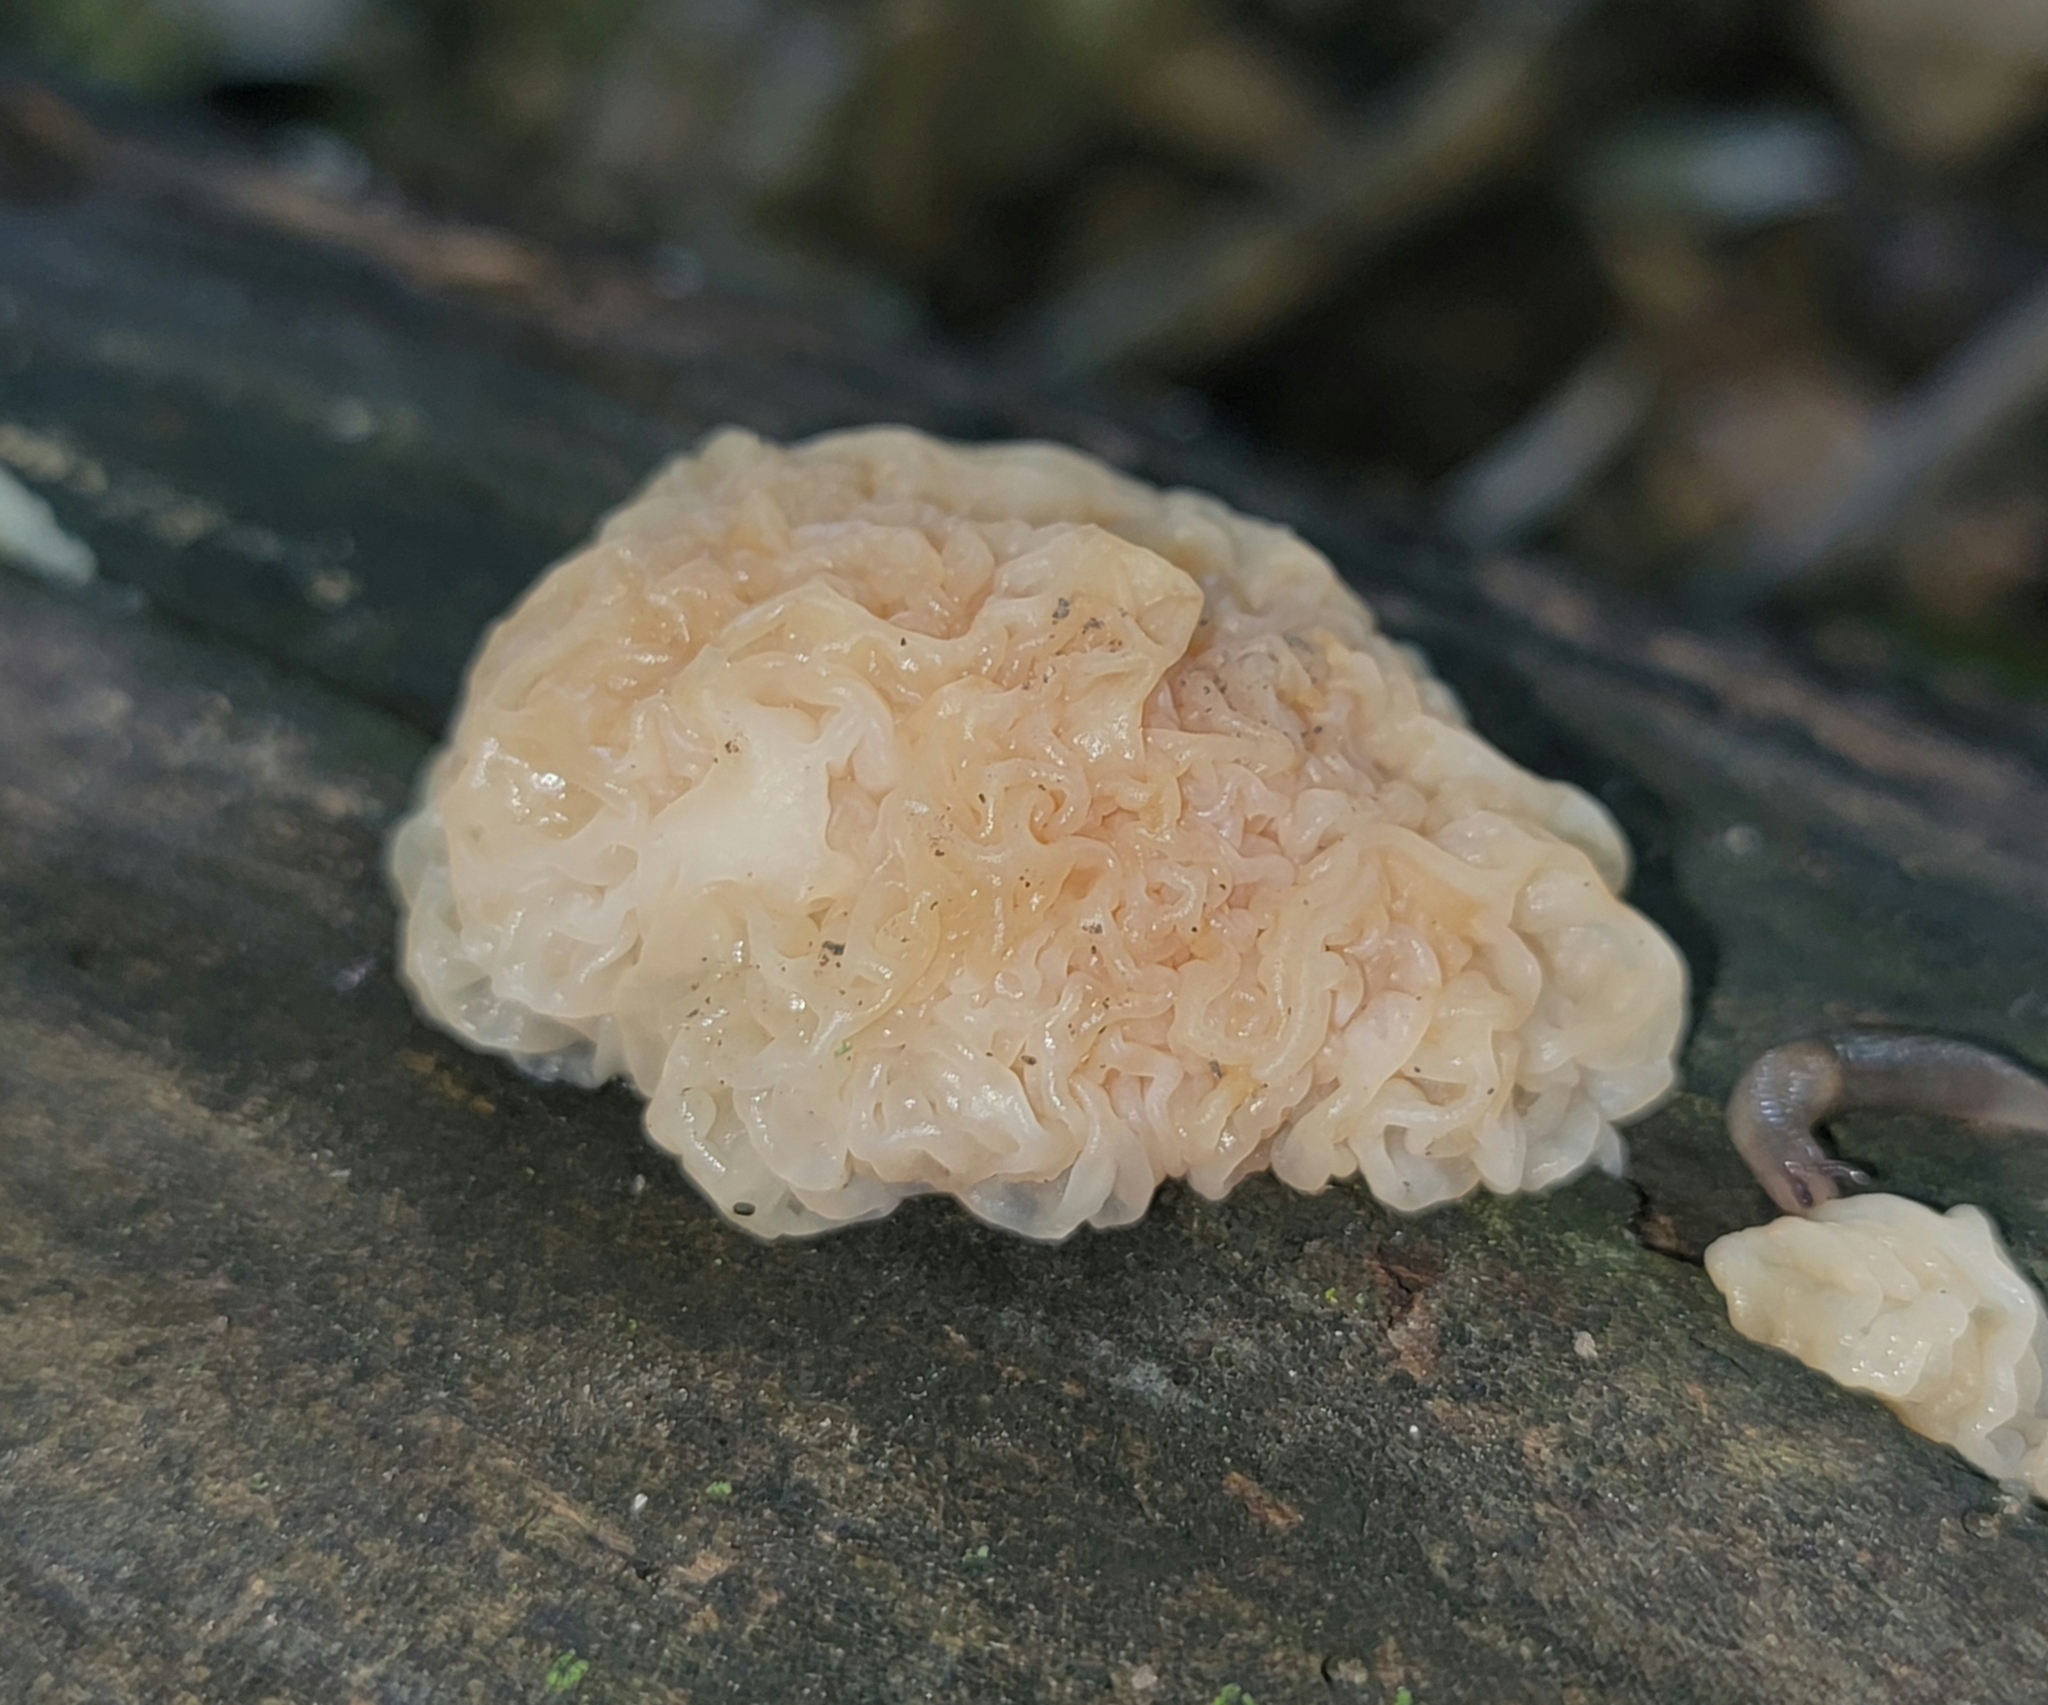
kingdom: Fungi
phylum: Basidiomycota
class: Agaricomycetes
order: Auriculariales
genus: Ductifera
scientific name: Ductifera pululahuana
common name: White jelly fungus
